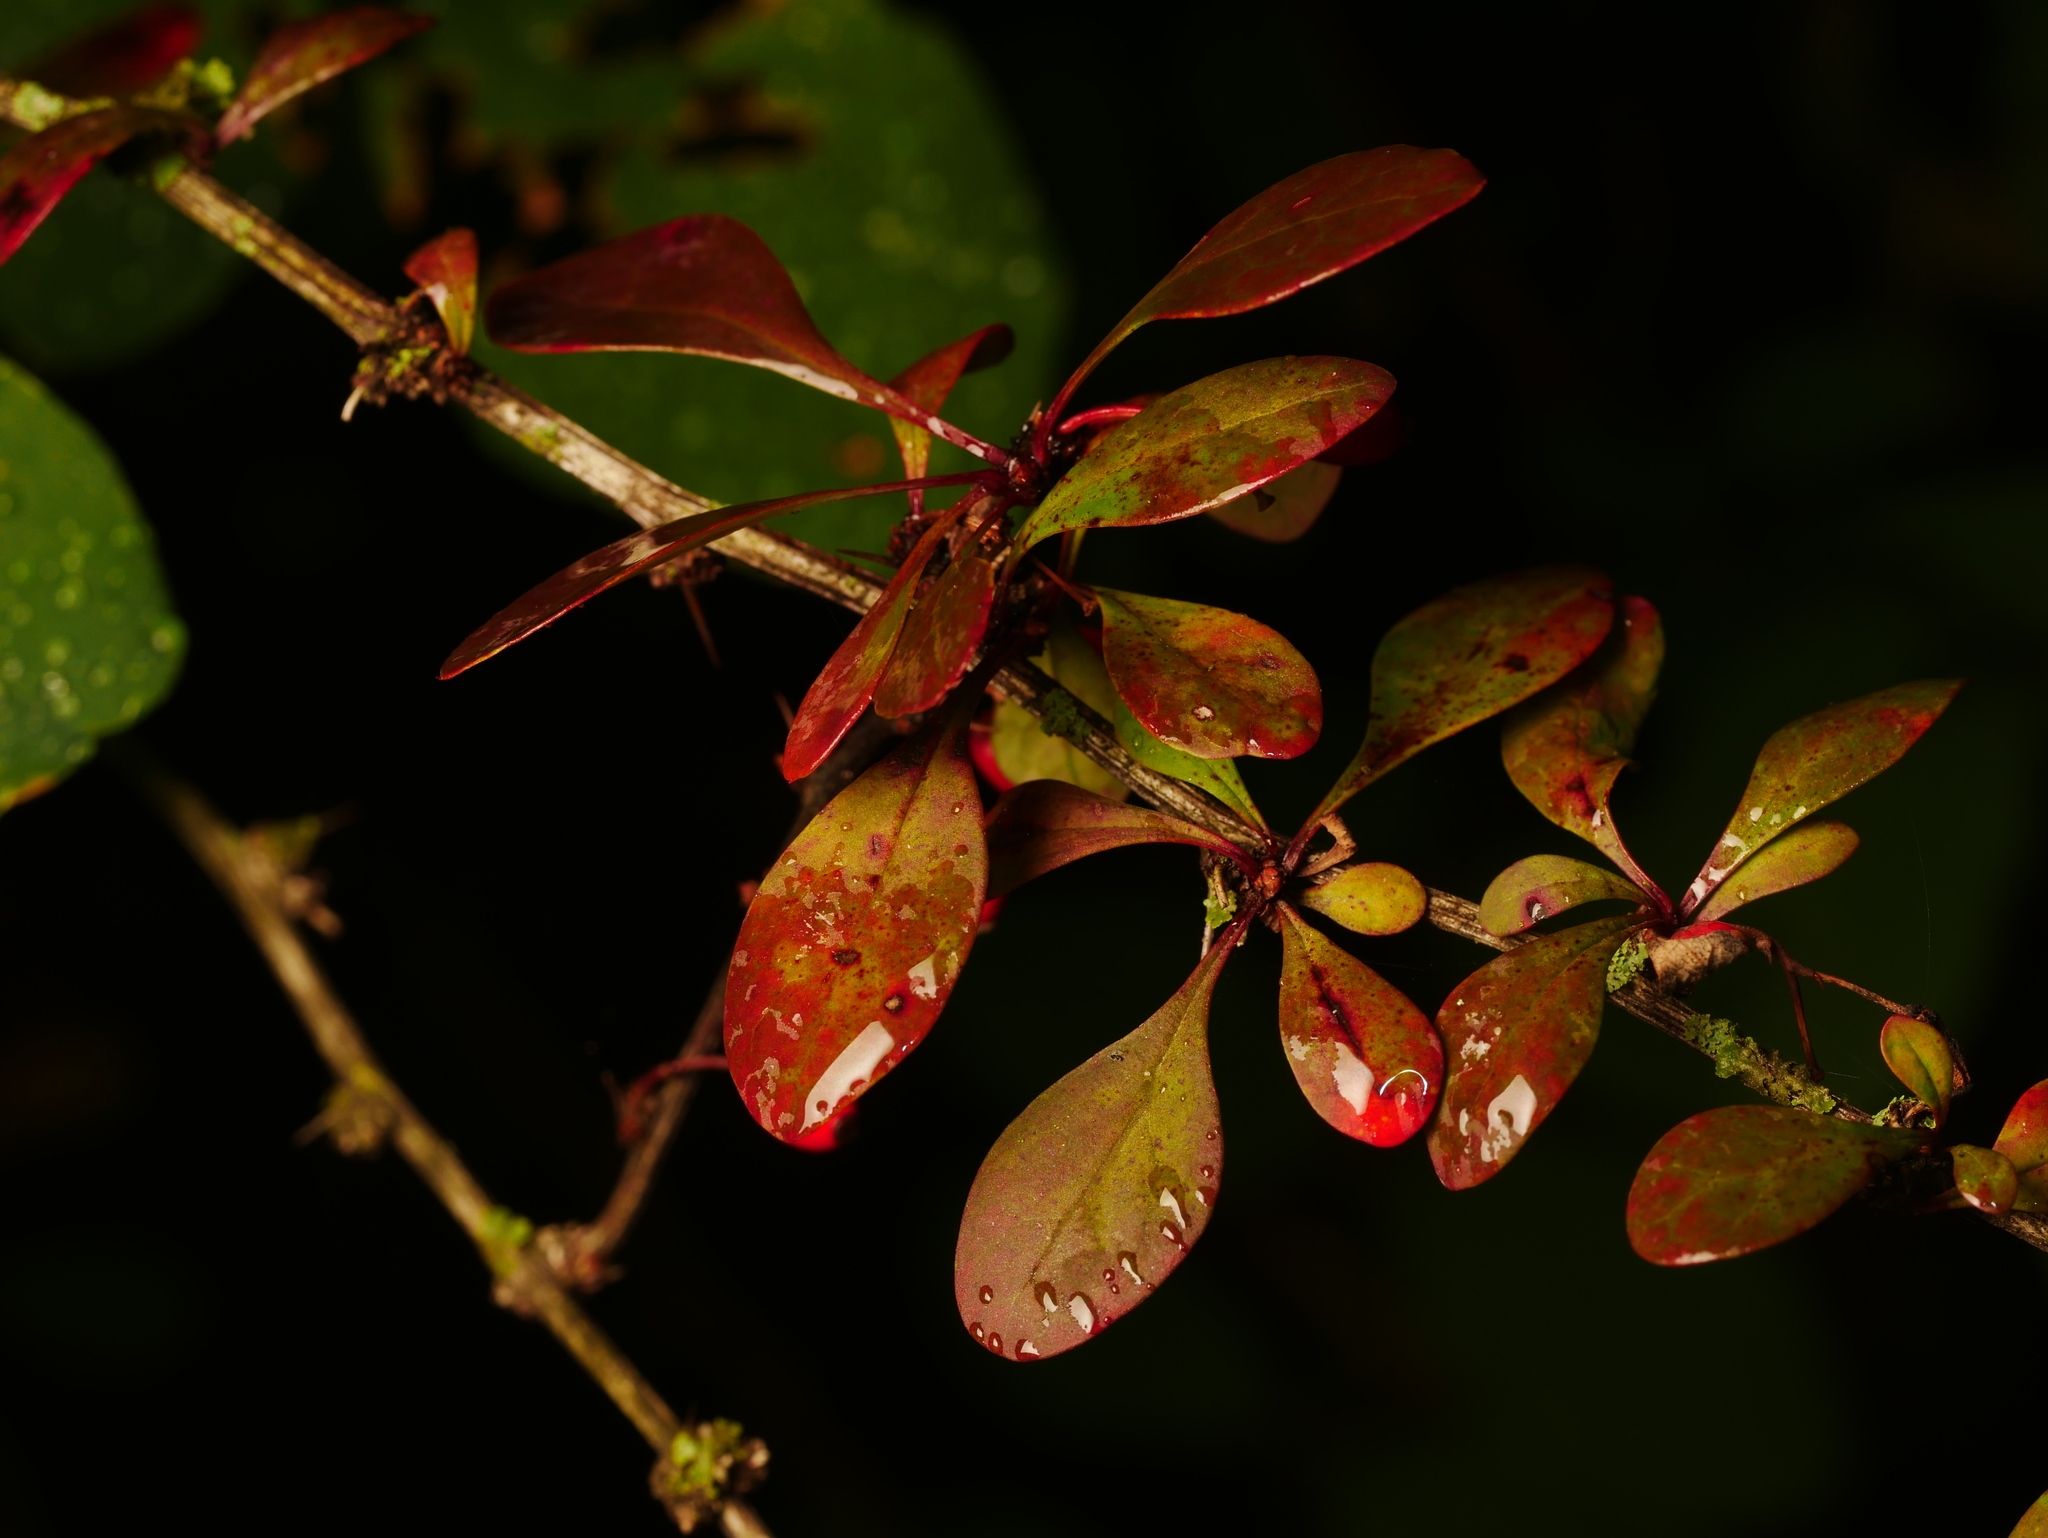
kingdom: Plantae
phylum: Tracheophyta
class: Magnoliopsida
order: Ranunculales
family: Berberidaceae
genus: Berberis
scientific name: Berberis thunbergii
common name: Japanese barberry
